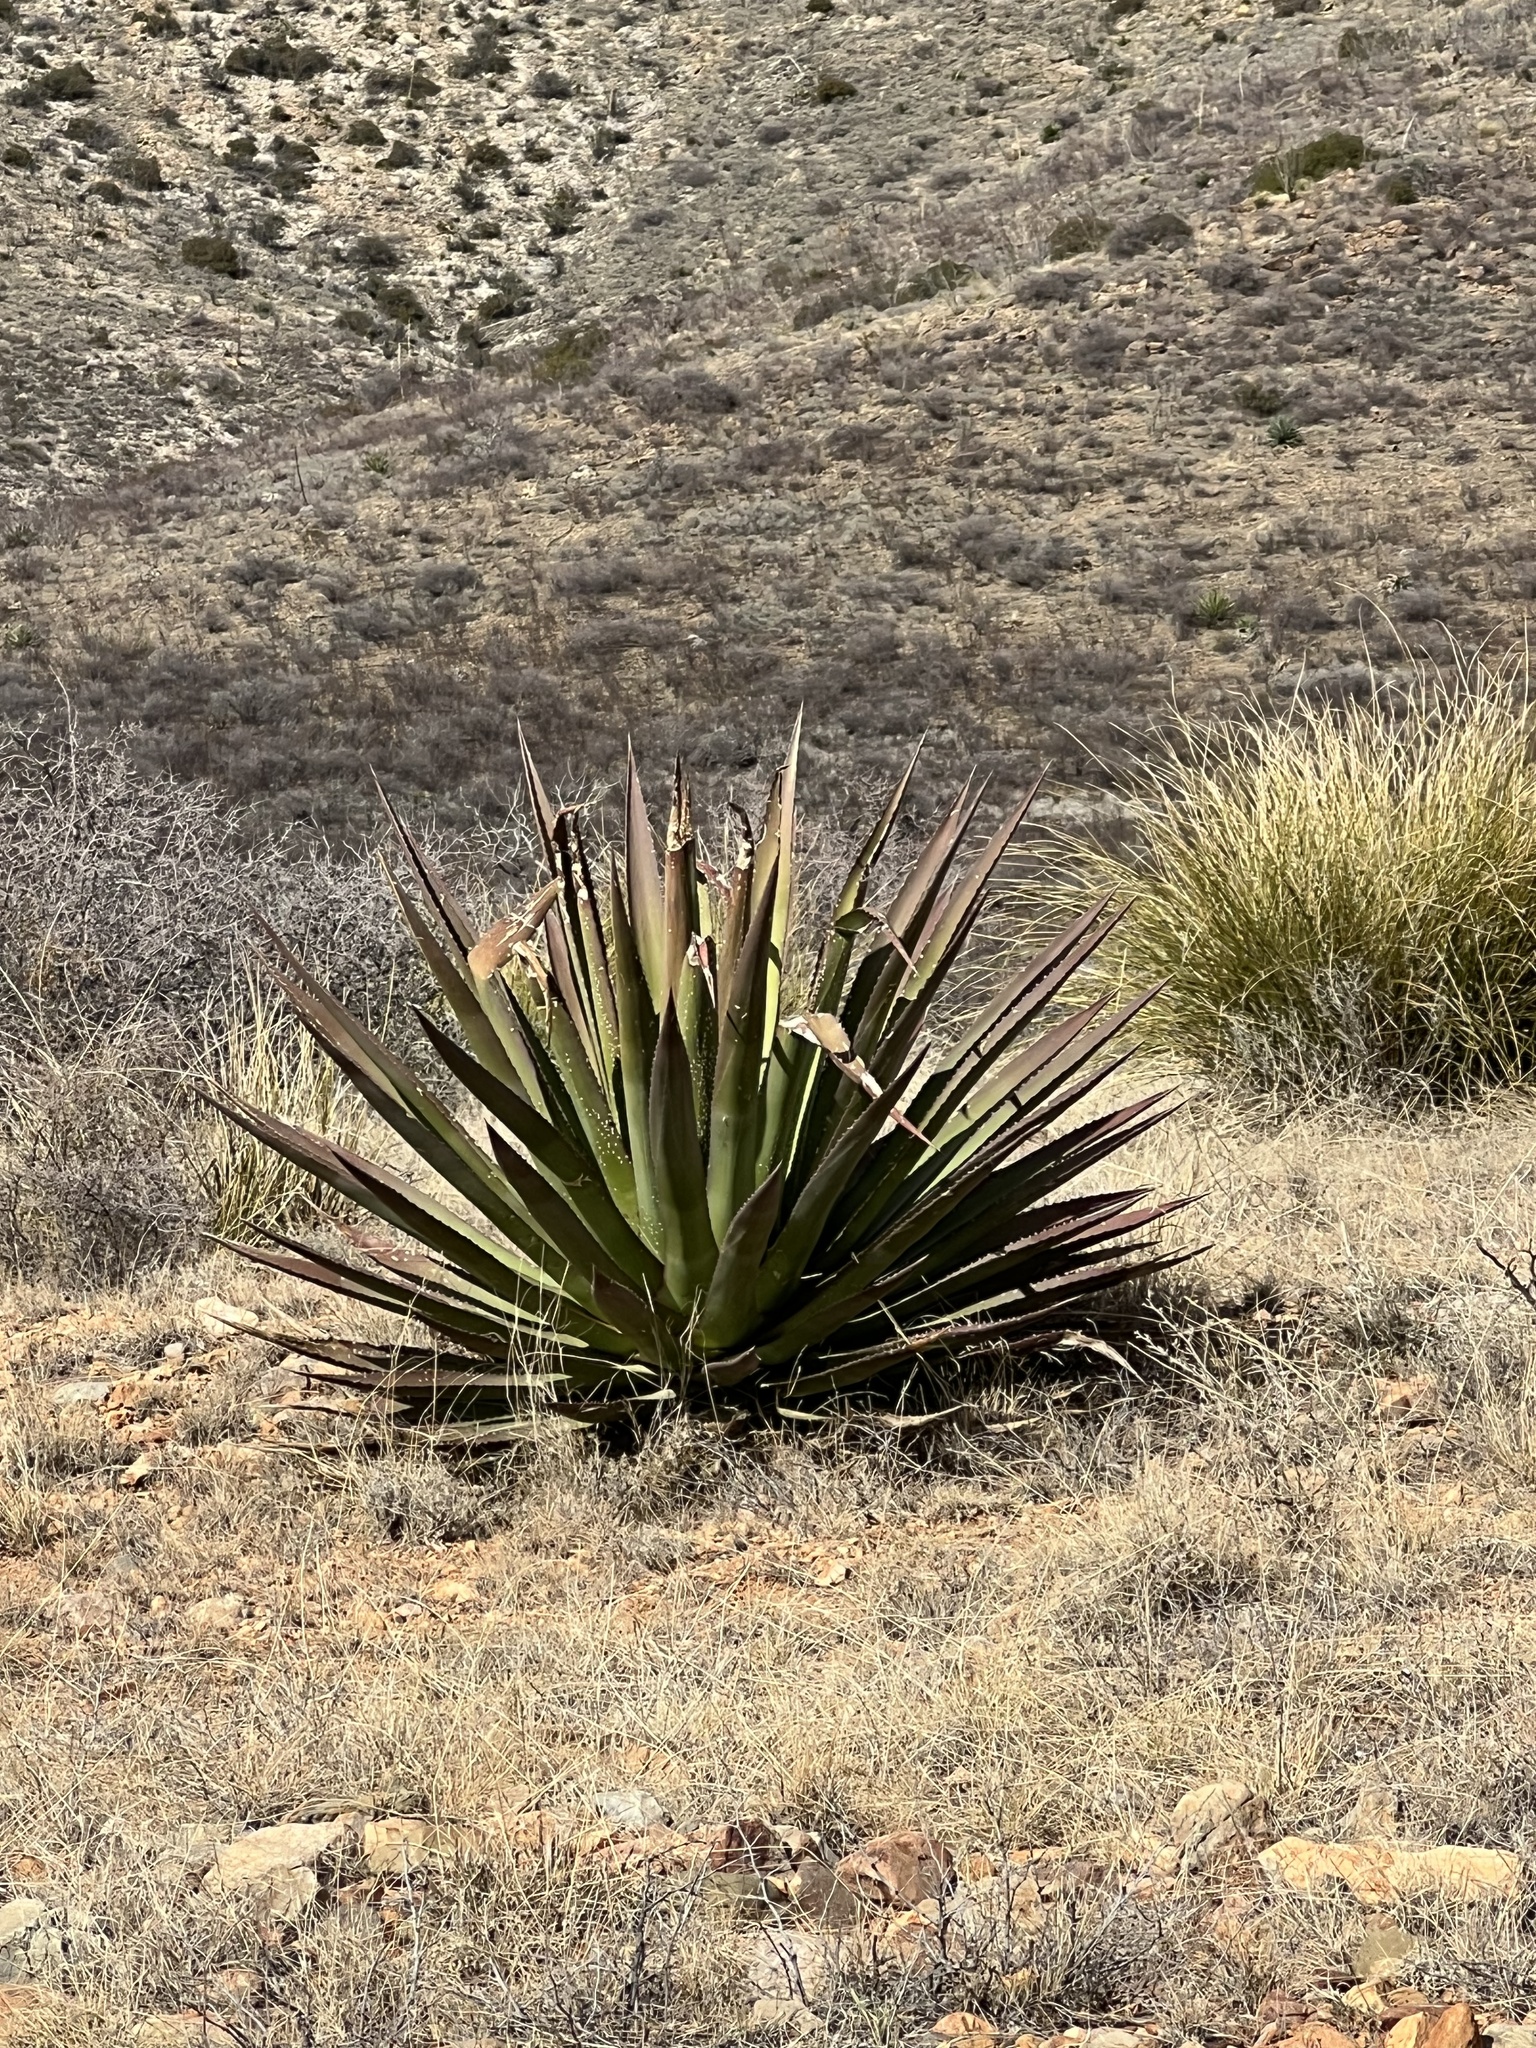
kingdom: Plantae
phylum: Tracheophyta
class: Liliopsida
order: Asparagales
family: Asparagaceae
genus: Agave
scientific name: Agave palmeri
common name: Palmer agave
